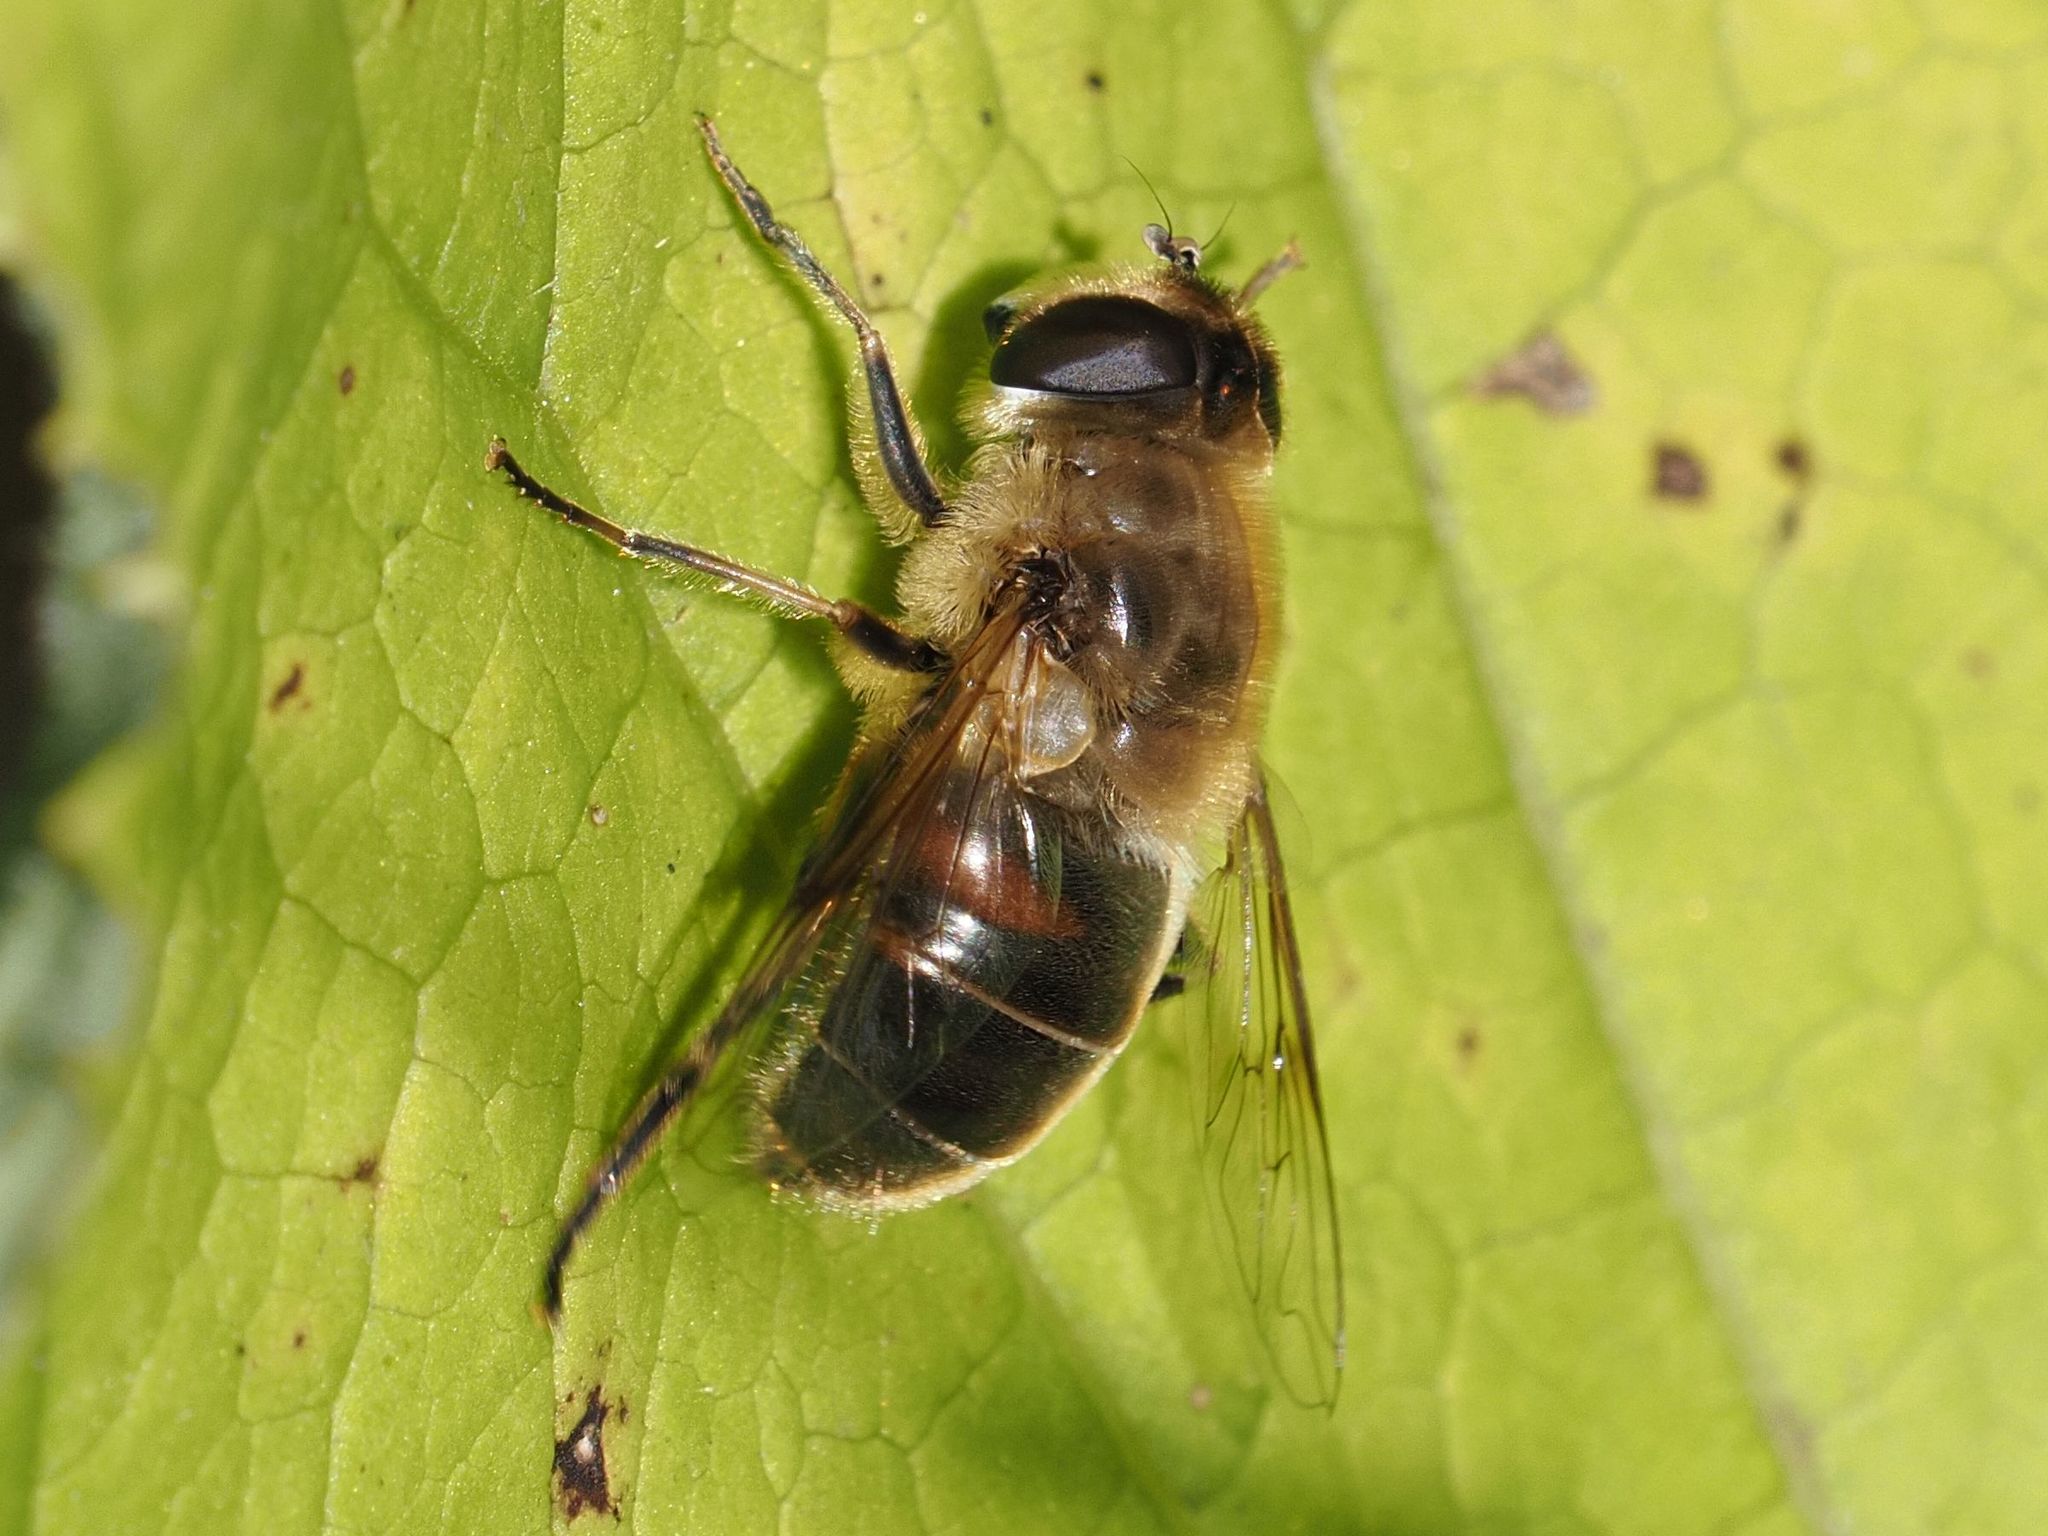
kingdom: Animalia
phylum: Arthropoda
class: Insecta
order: Diptera
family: Syrphidae
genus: Eristalis
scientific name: Eristalis tenax
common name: Drone fly
